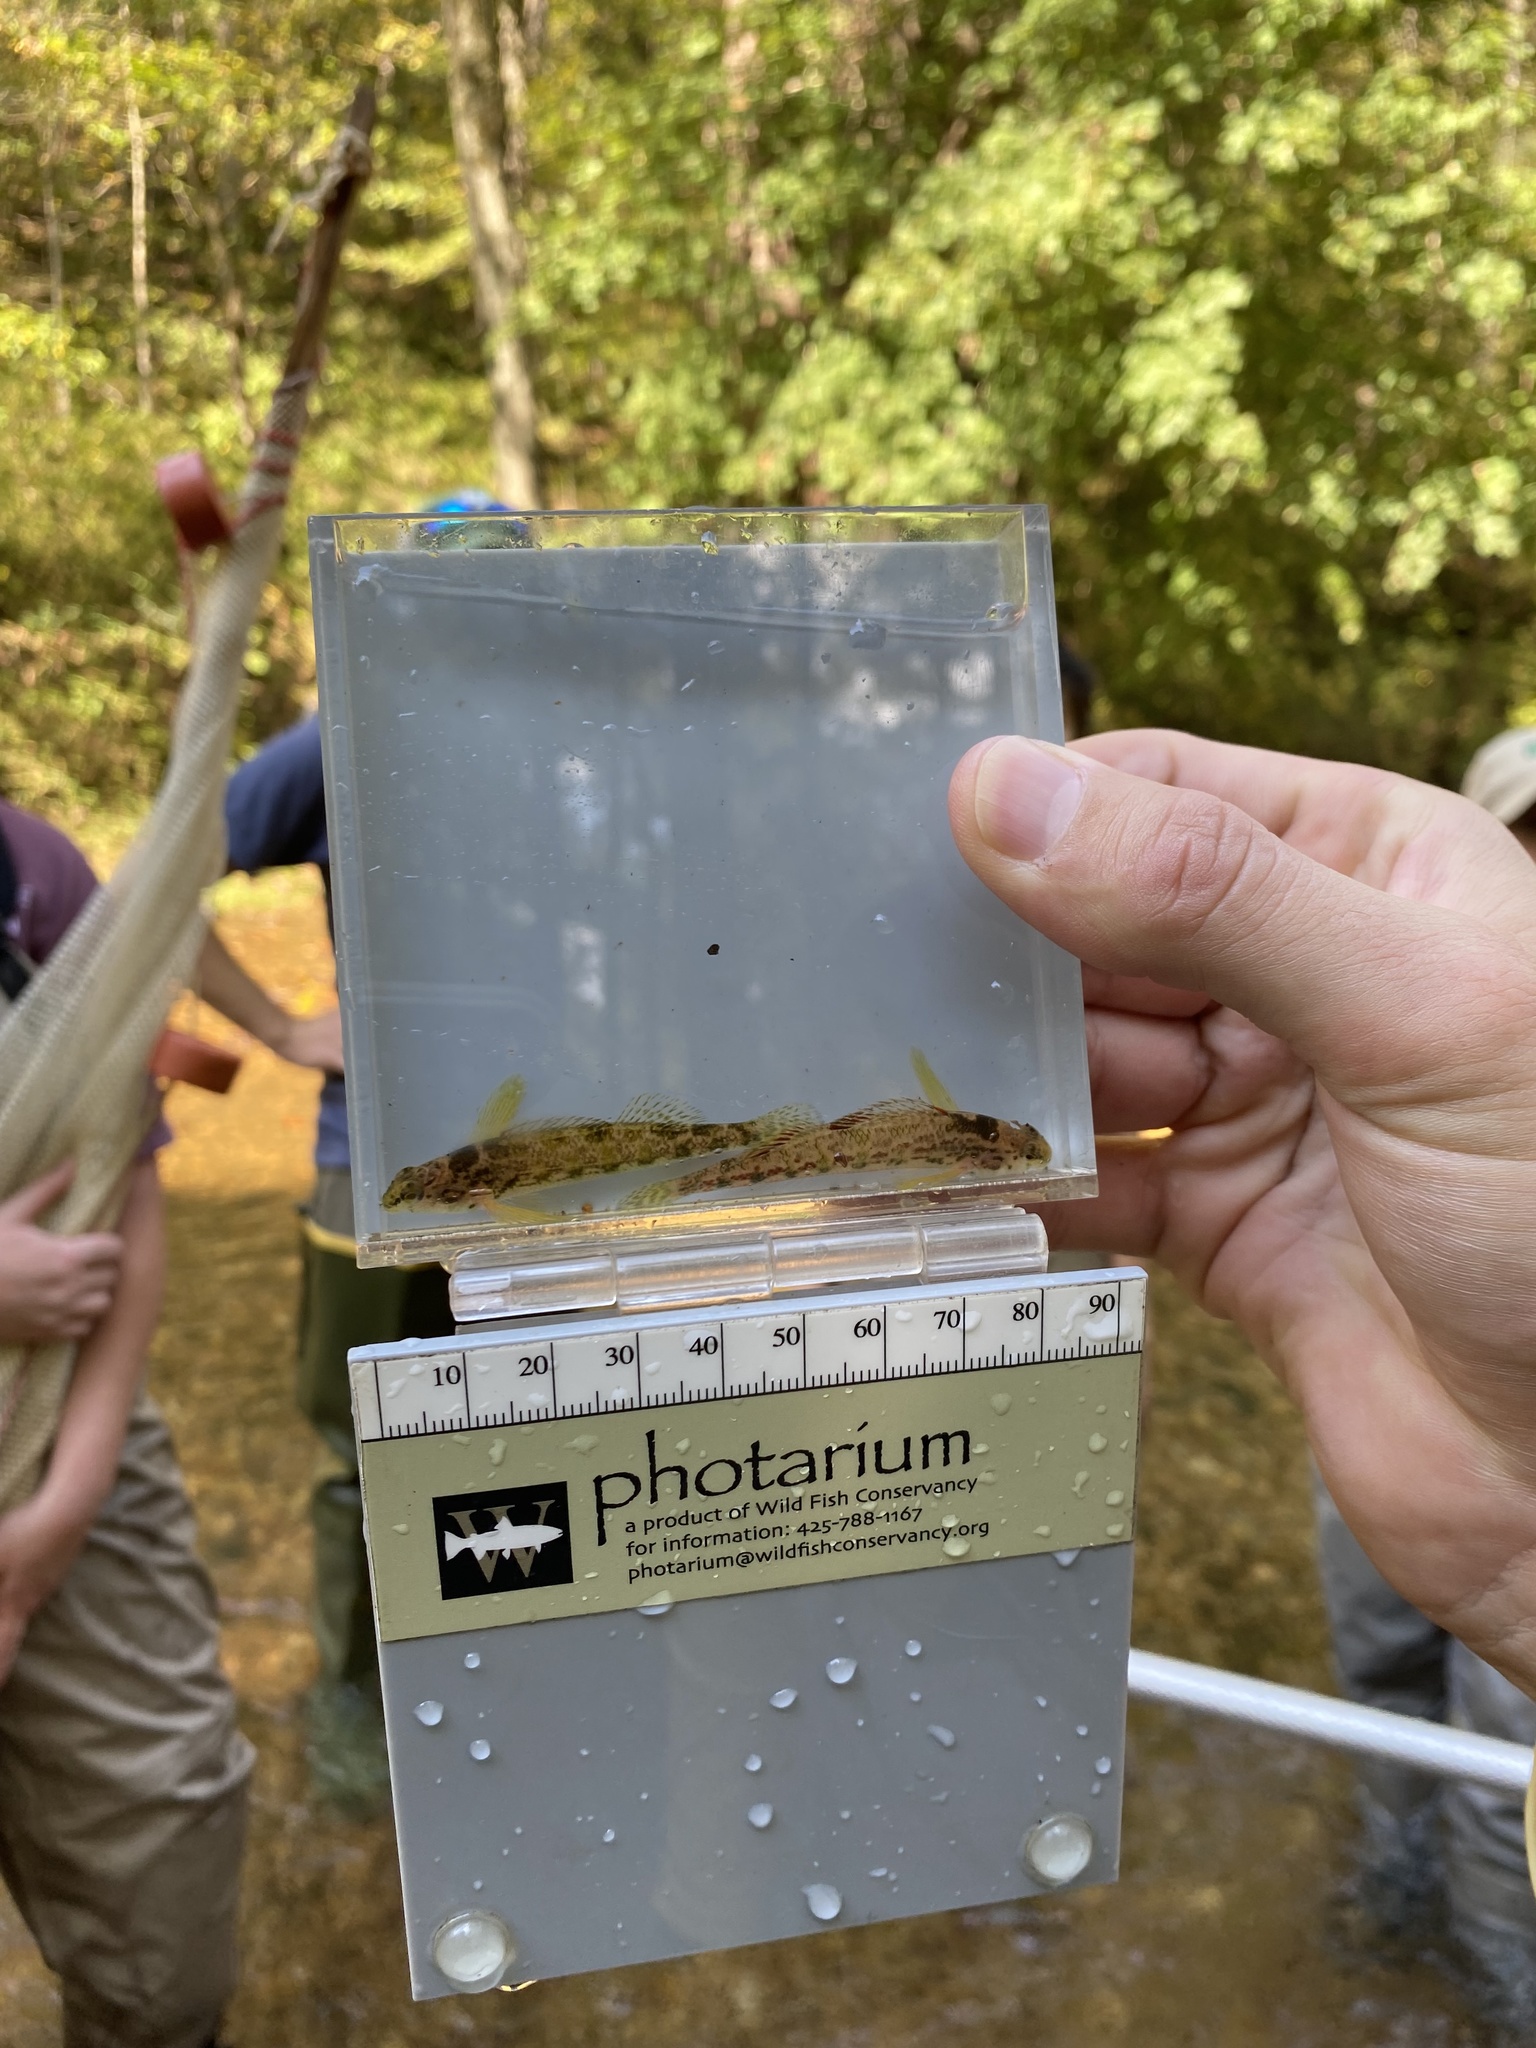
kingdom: Animalia
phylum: Chordata
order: Perciformes
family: Percidae
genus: Etheostoma
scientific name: Etheostoma chermocki
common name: Vermilion darter
